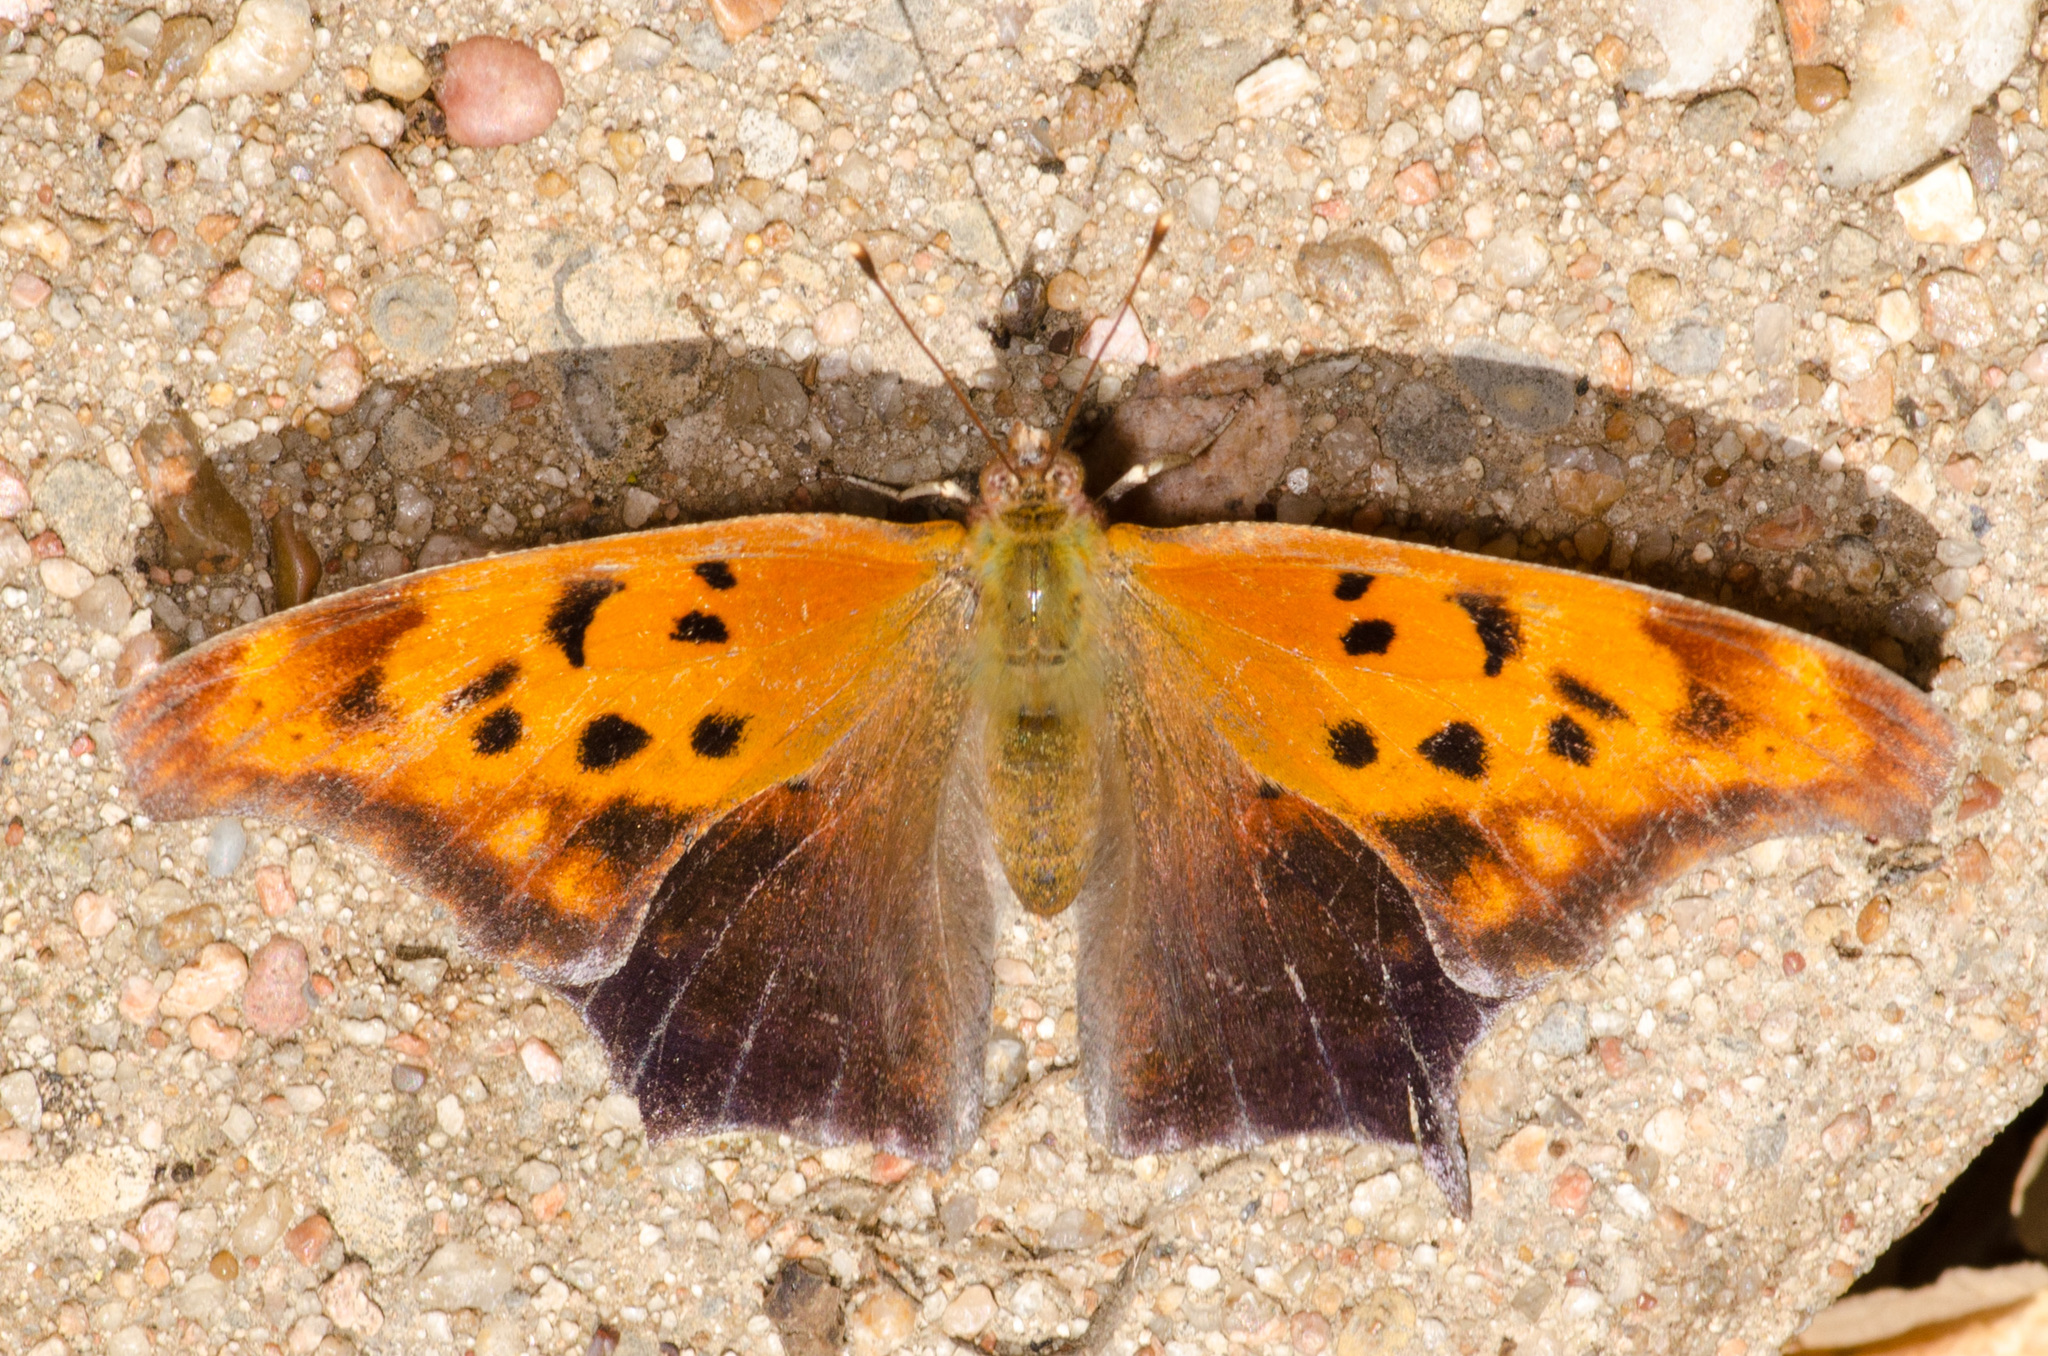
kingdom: Animalia
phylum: Arthropoda
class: Insecta
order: Lepidoptera
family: Nymphalidae
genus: Polygonia
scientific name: Polygonia interrogationis
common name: Question mark
